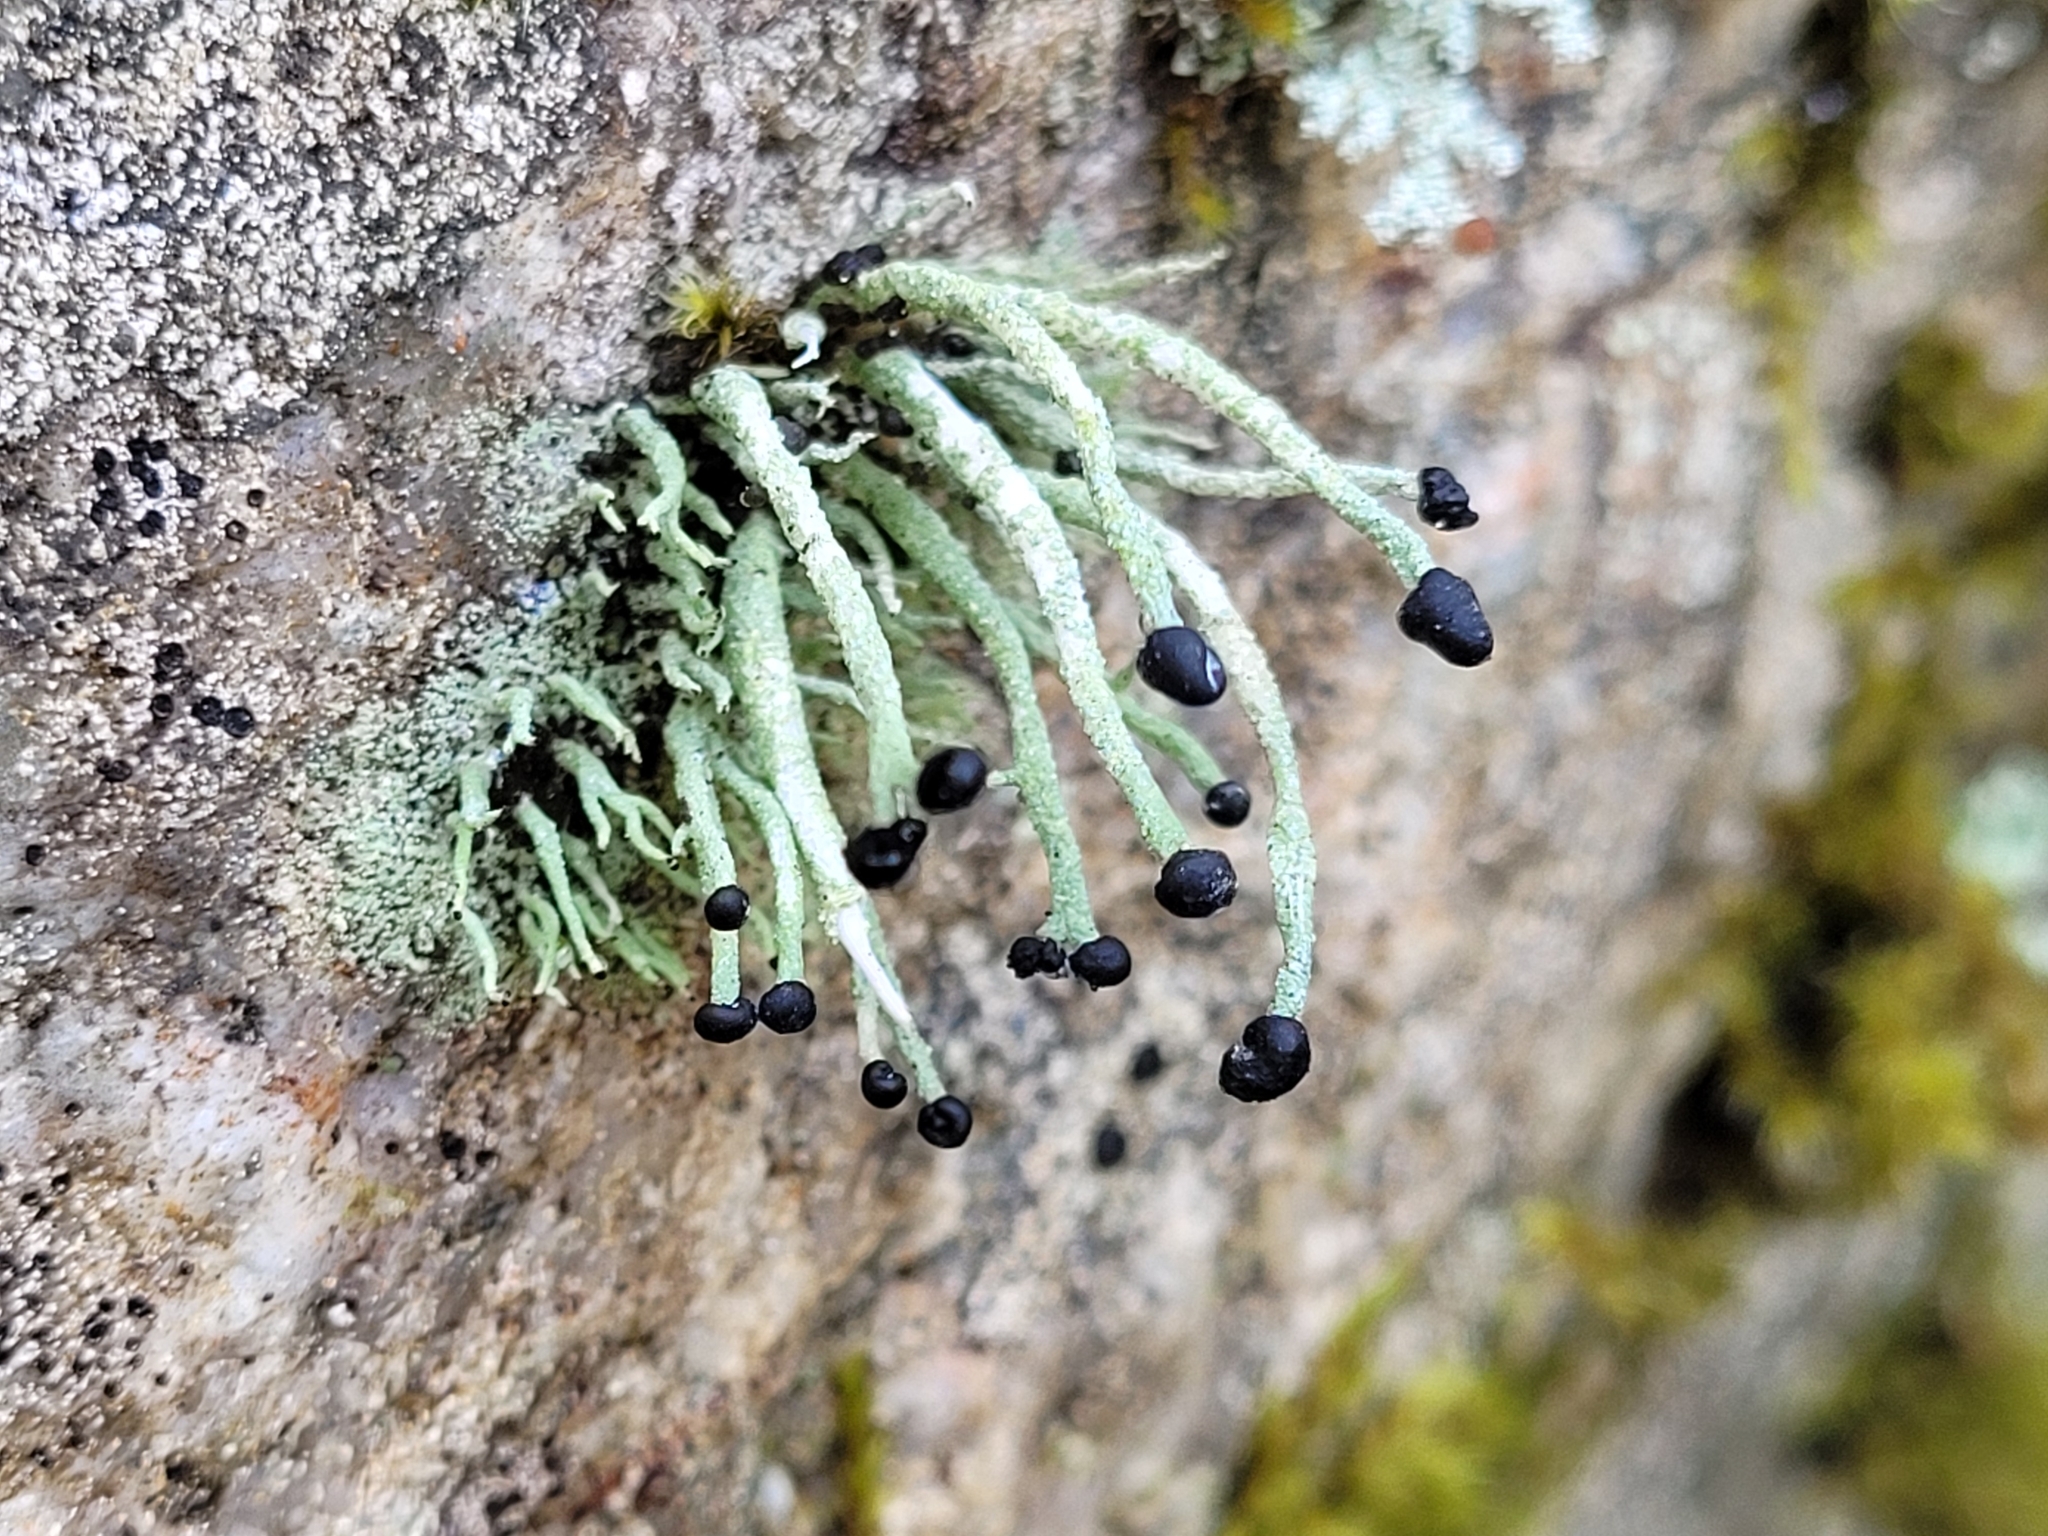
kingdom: Fungi
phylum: Ascomycota
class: Lecanoromycetes
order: Lecanorales
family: Cladoniaceae
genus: Pilophorus
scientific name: Pilophorus acicularis
